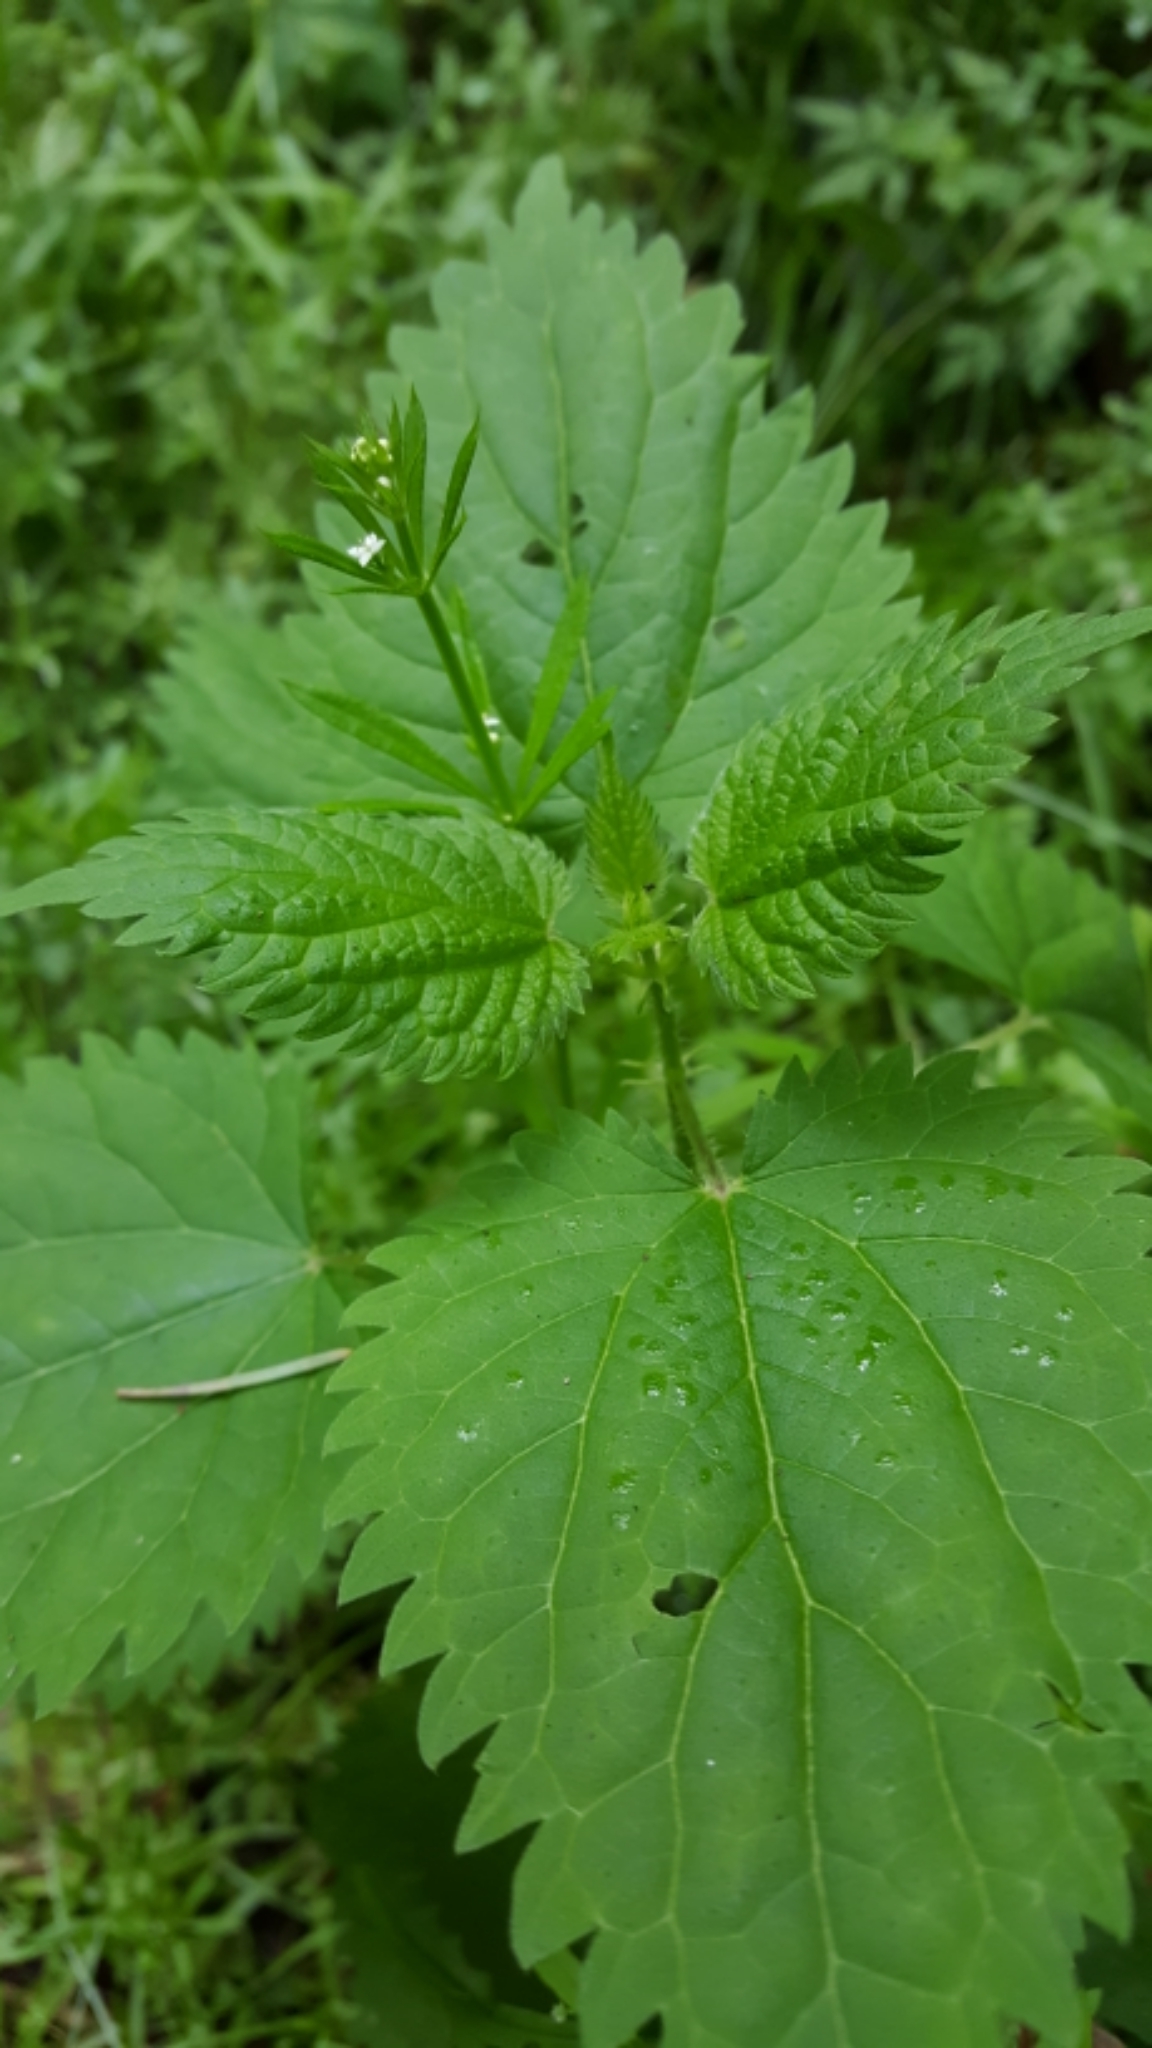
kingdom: Plantae
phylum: Tracheophyta
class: Magnoliopsida
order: Rosales
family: Urticaceae
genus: Urtica
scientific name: Urtica dioica
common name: Common nettle
